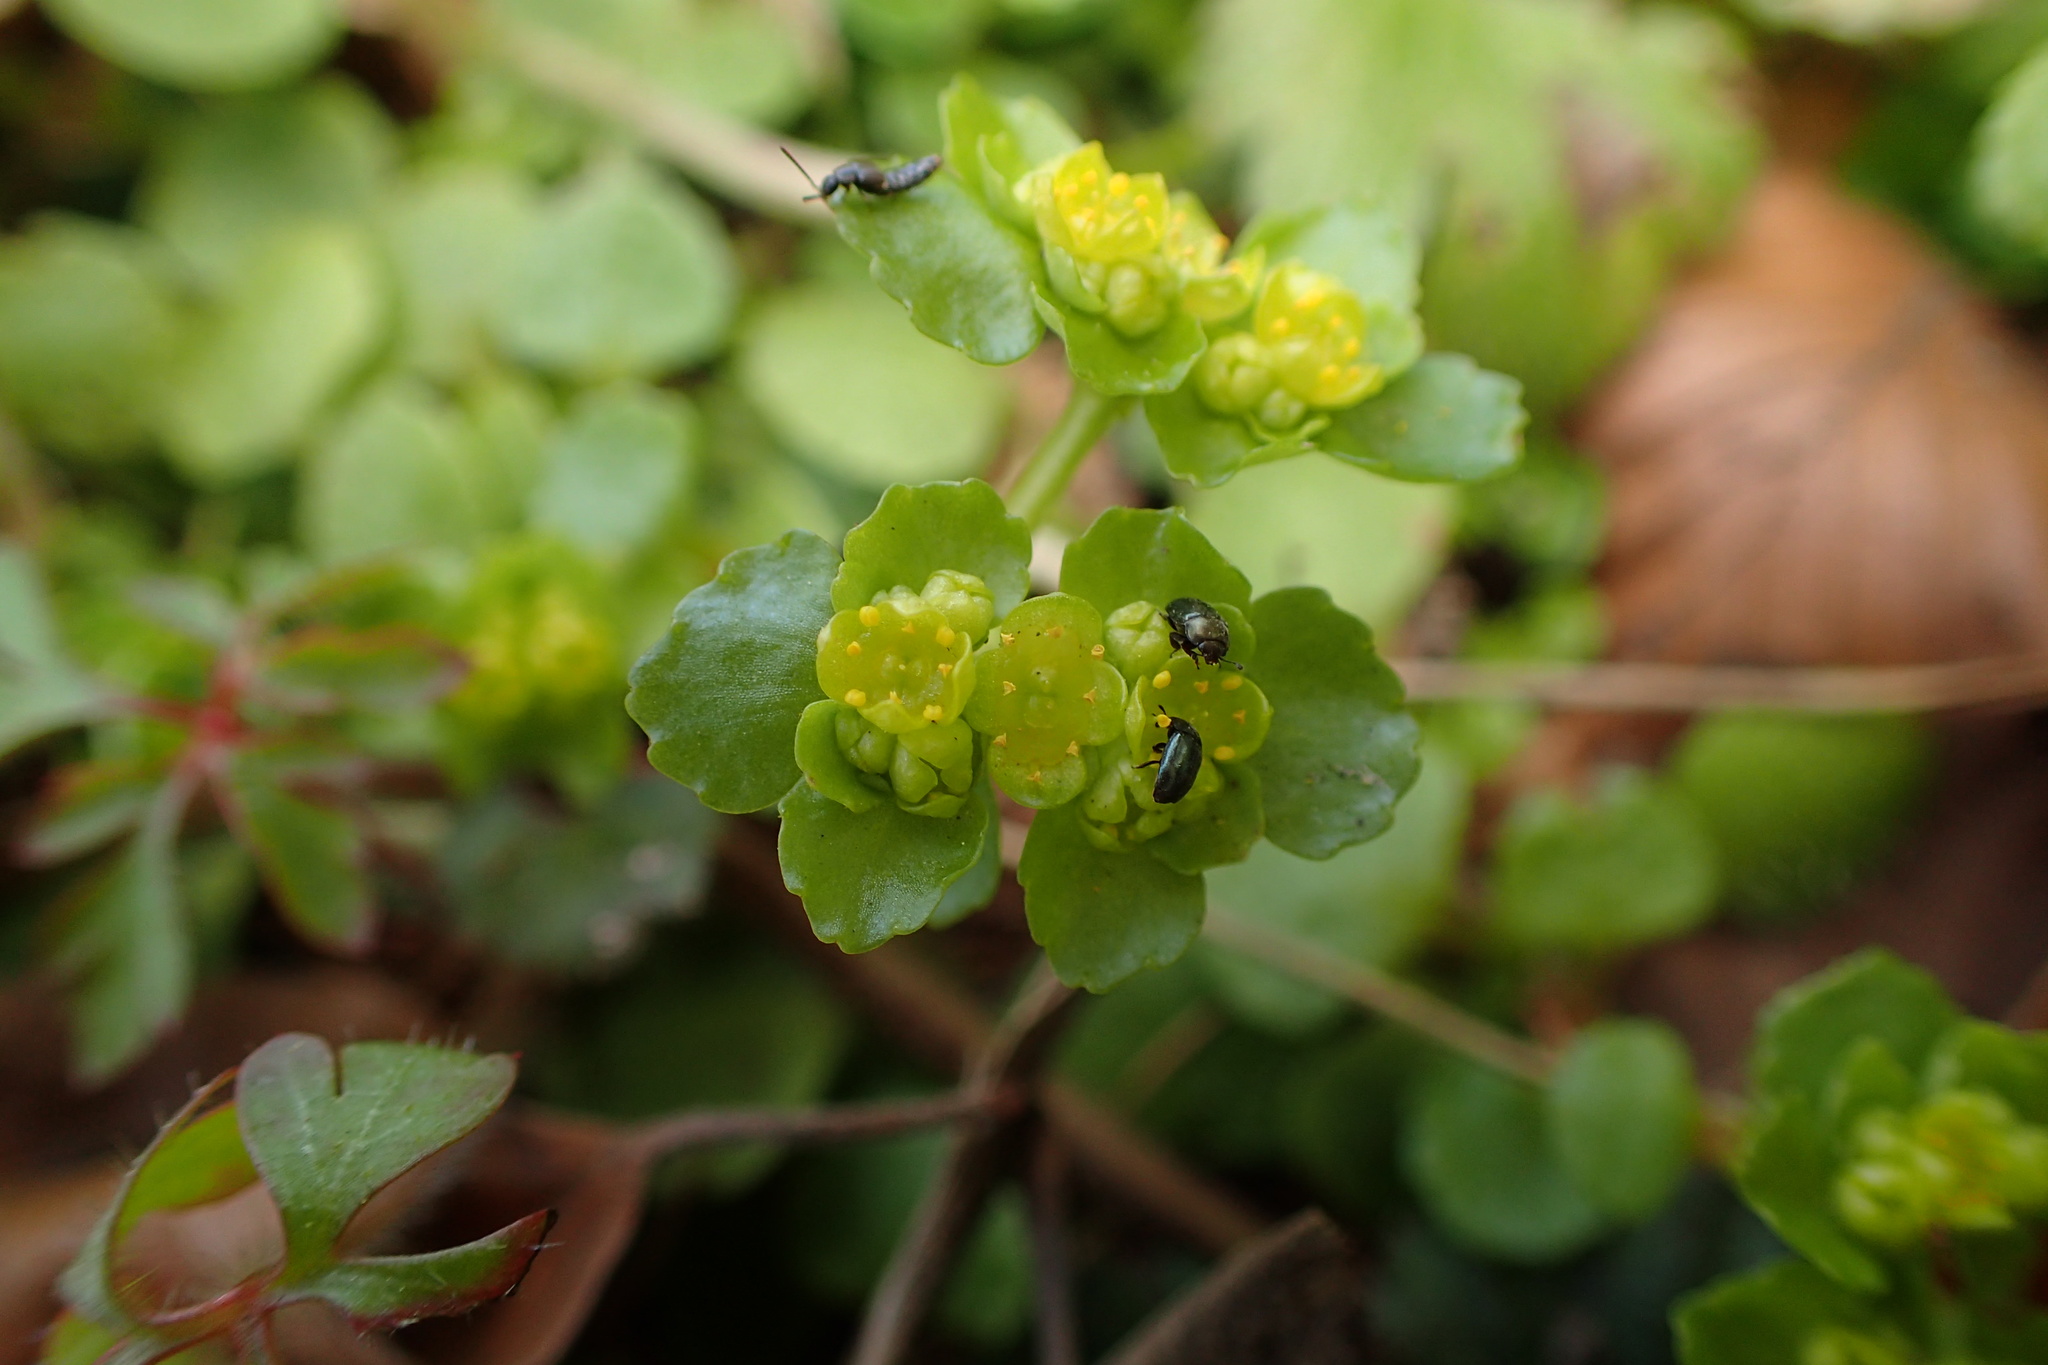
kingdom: Plantae
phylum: Tracheophyta
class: Magnoliopsida
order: Saxifragales
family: Saxifragaceae
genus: Chrysosplenium
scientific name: Chrysosplenium oppositifolium
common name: Opposite-leaved golden-saxifrage
